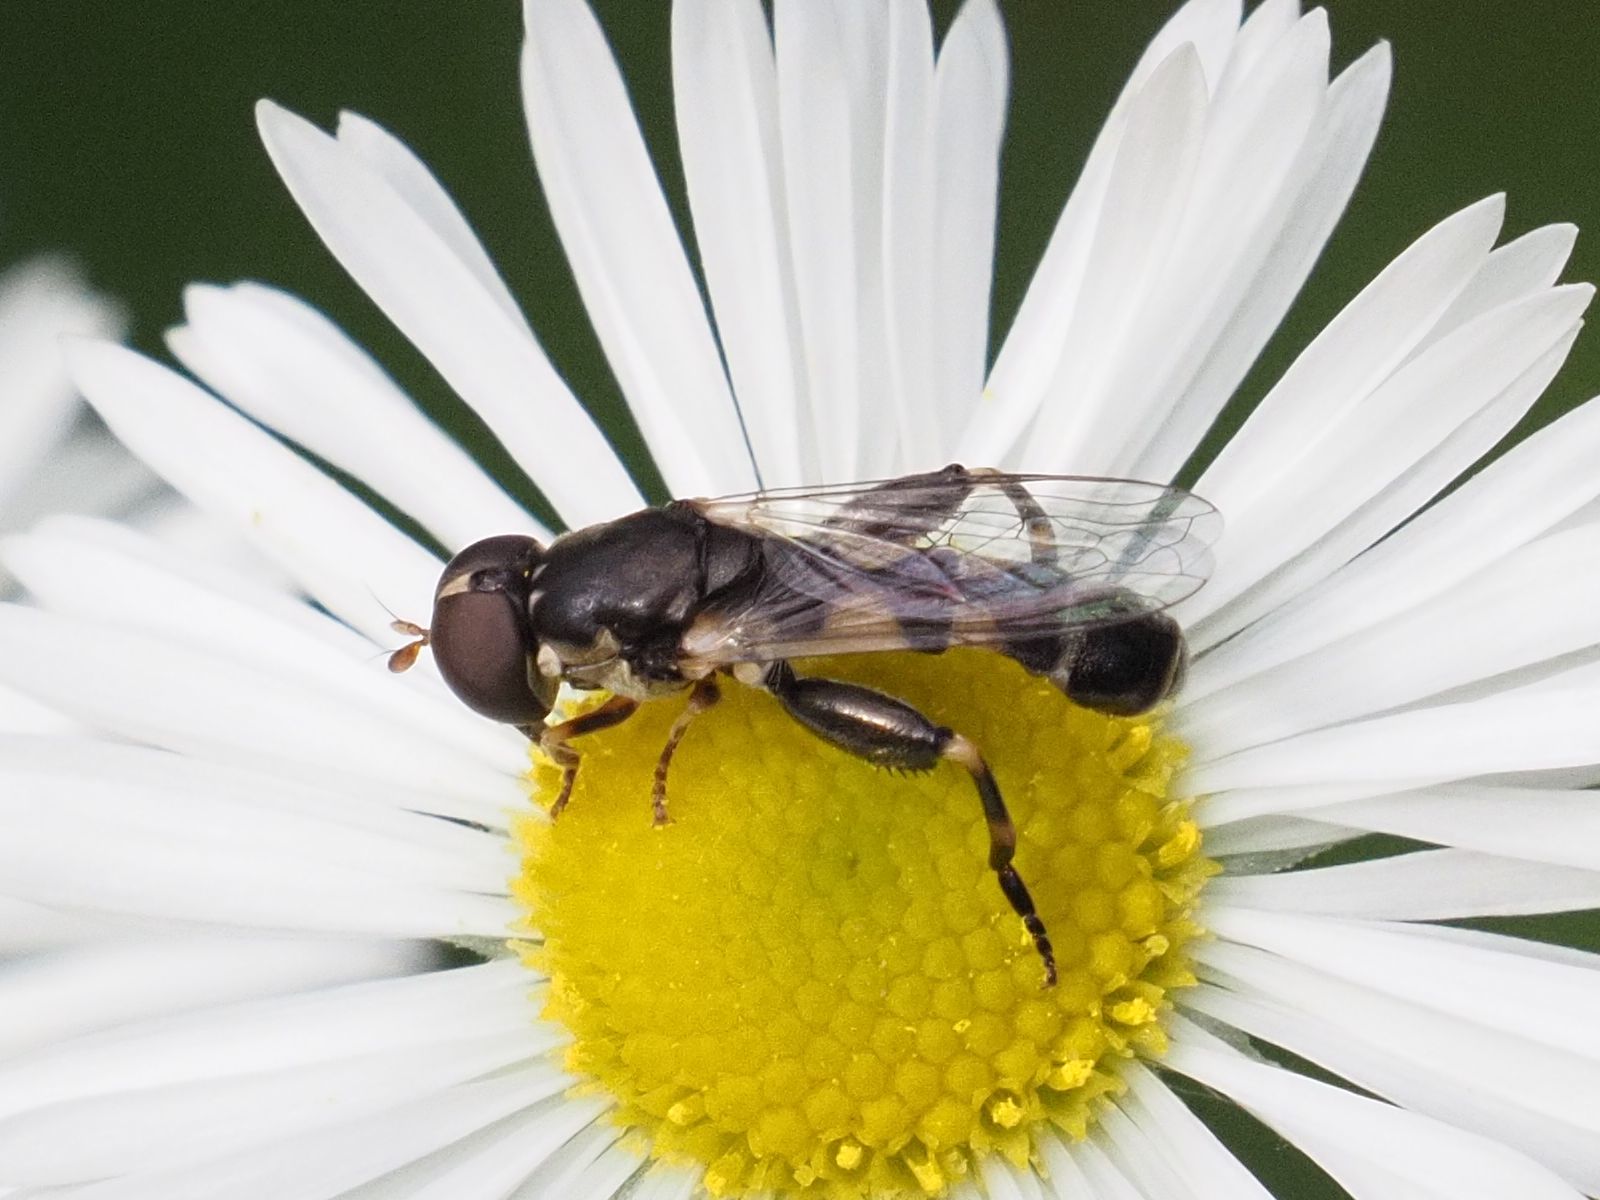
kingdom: Animalia
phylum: Arthropoda
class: Insecta
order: Diptera
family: Syrphidae
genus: Syritta
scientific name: Syritta pipiens
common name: Hover fly
